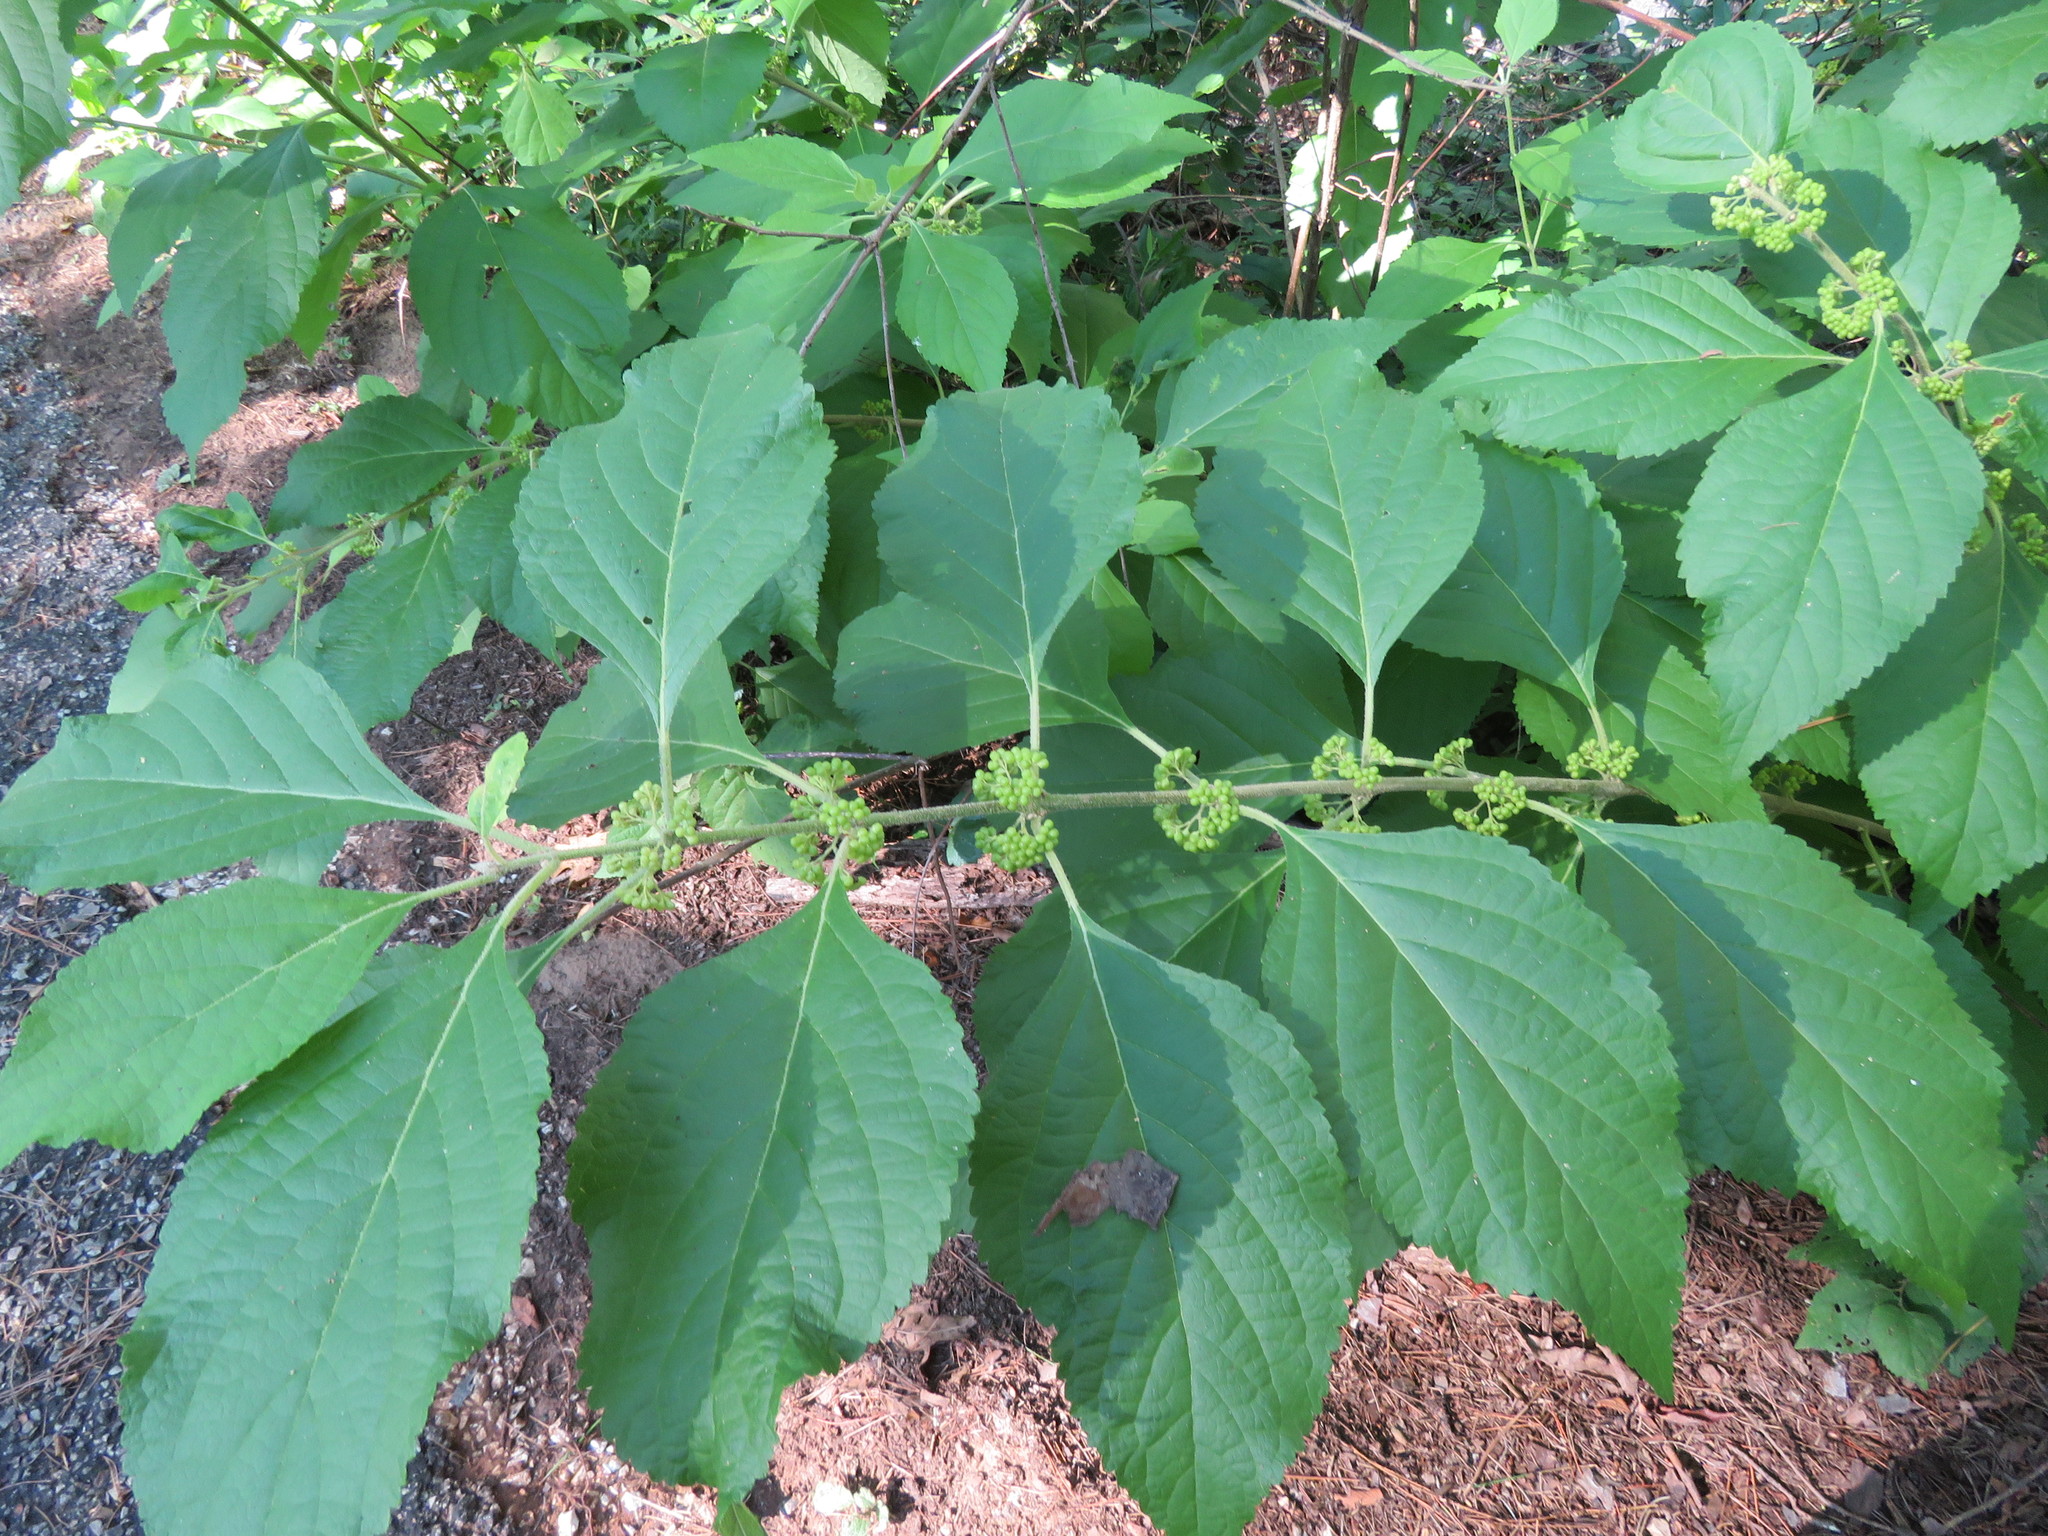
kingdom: Plantae
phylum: Tracheophyta
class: Magnoliopsida
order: Lamiales
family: Lamiaceae
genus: Callicarpa
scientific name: Callicarpa americana
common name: American beautyberry
